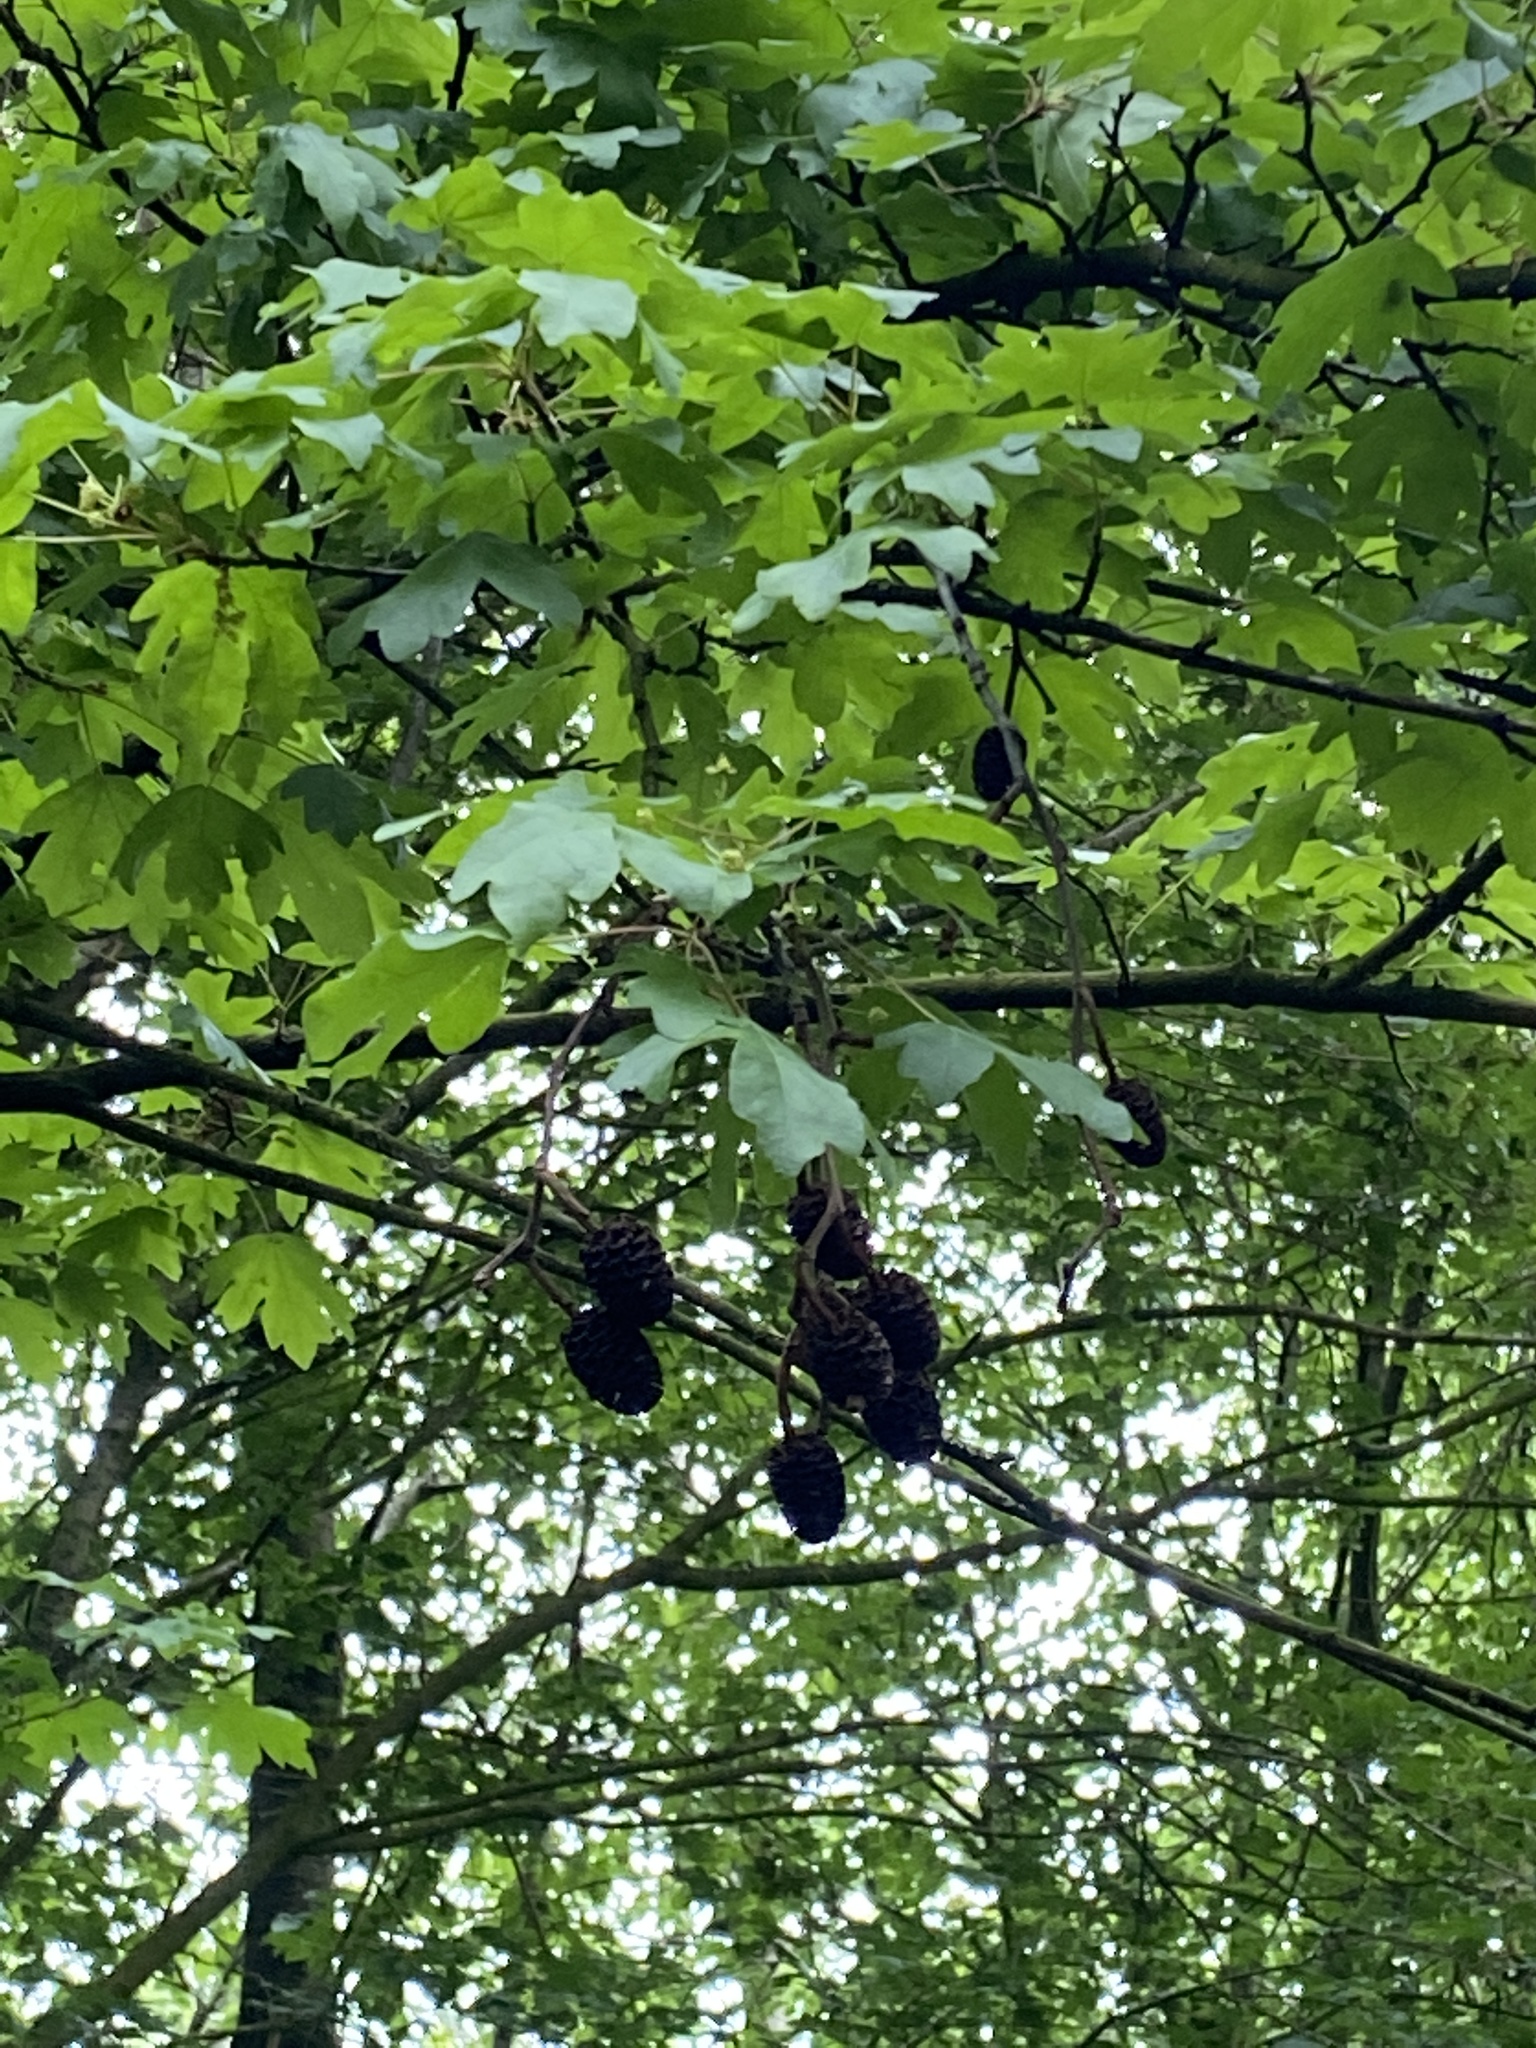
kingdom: Plantae
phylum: Tracheophyta
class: Magnoliopsida
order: Sapindales
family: Sapindaceae
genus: Acer
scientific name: Acer campestre
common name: Field maple
